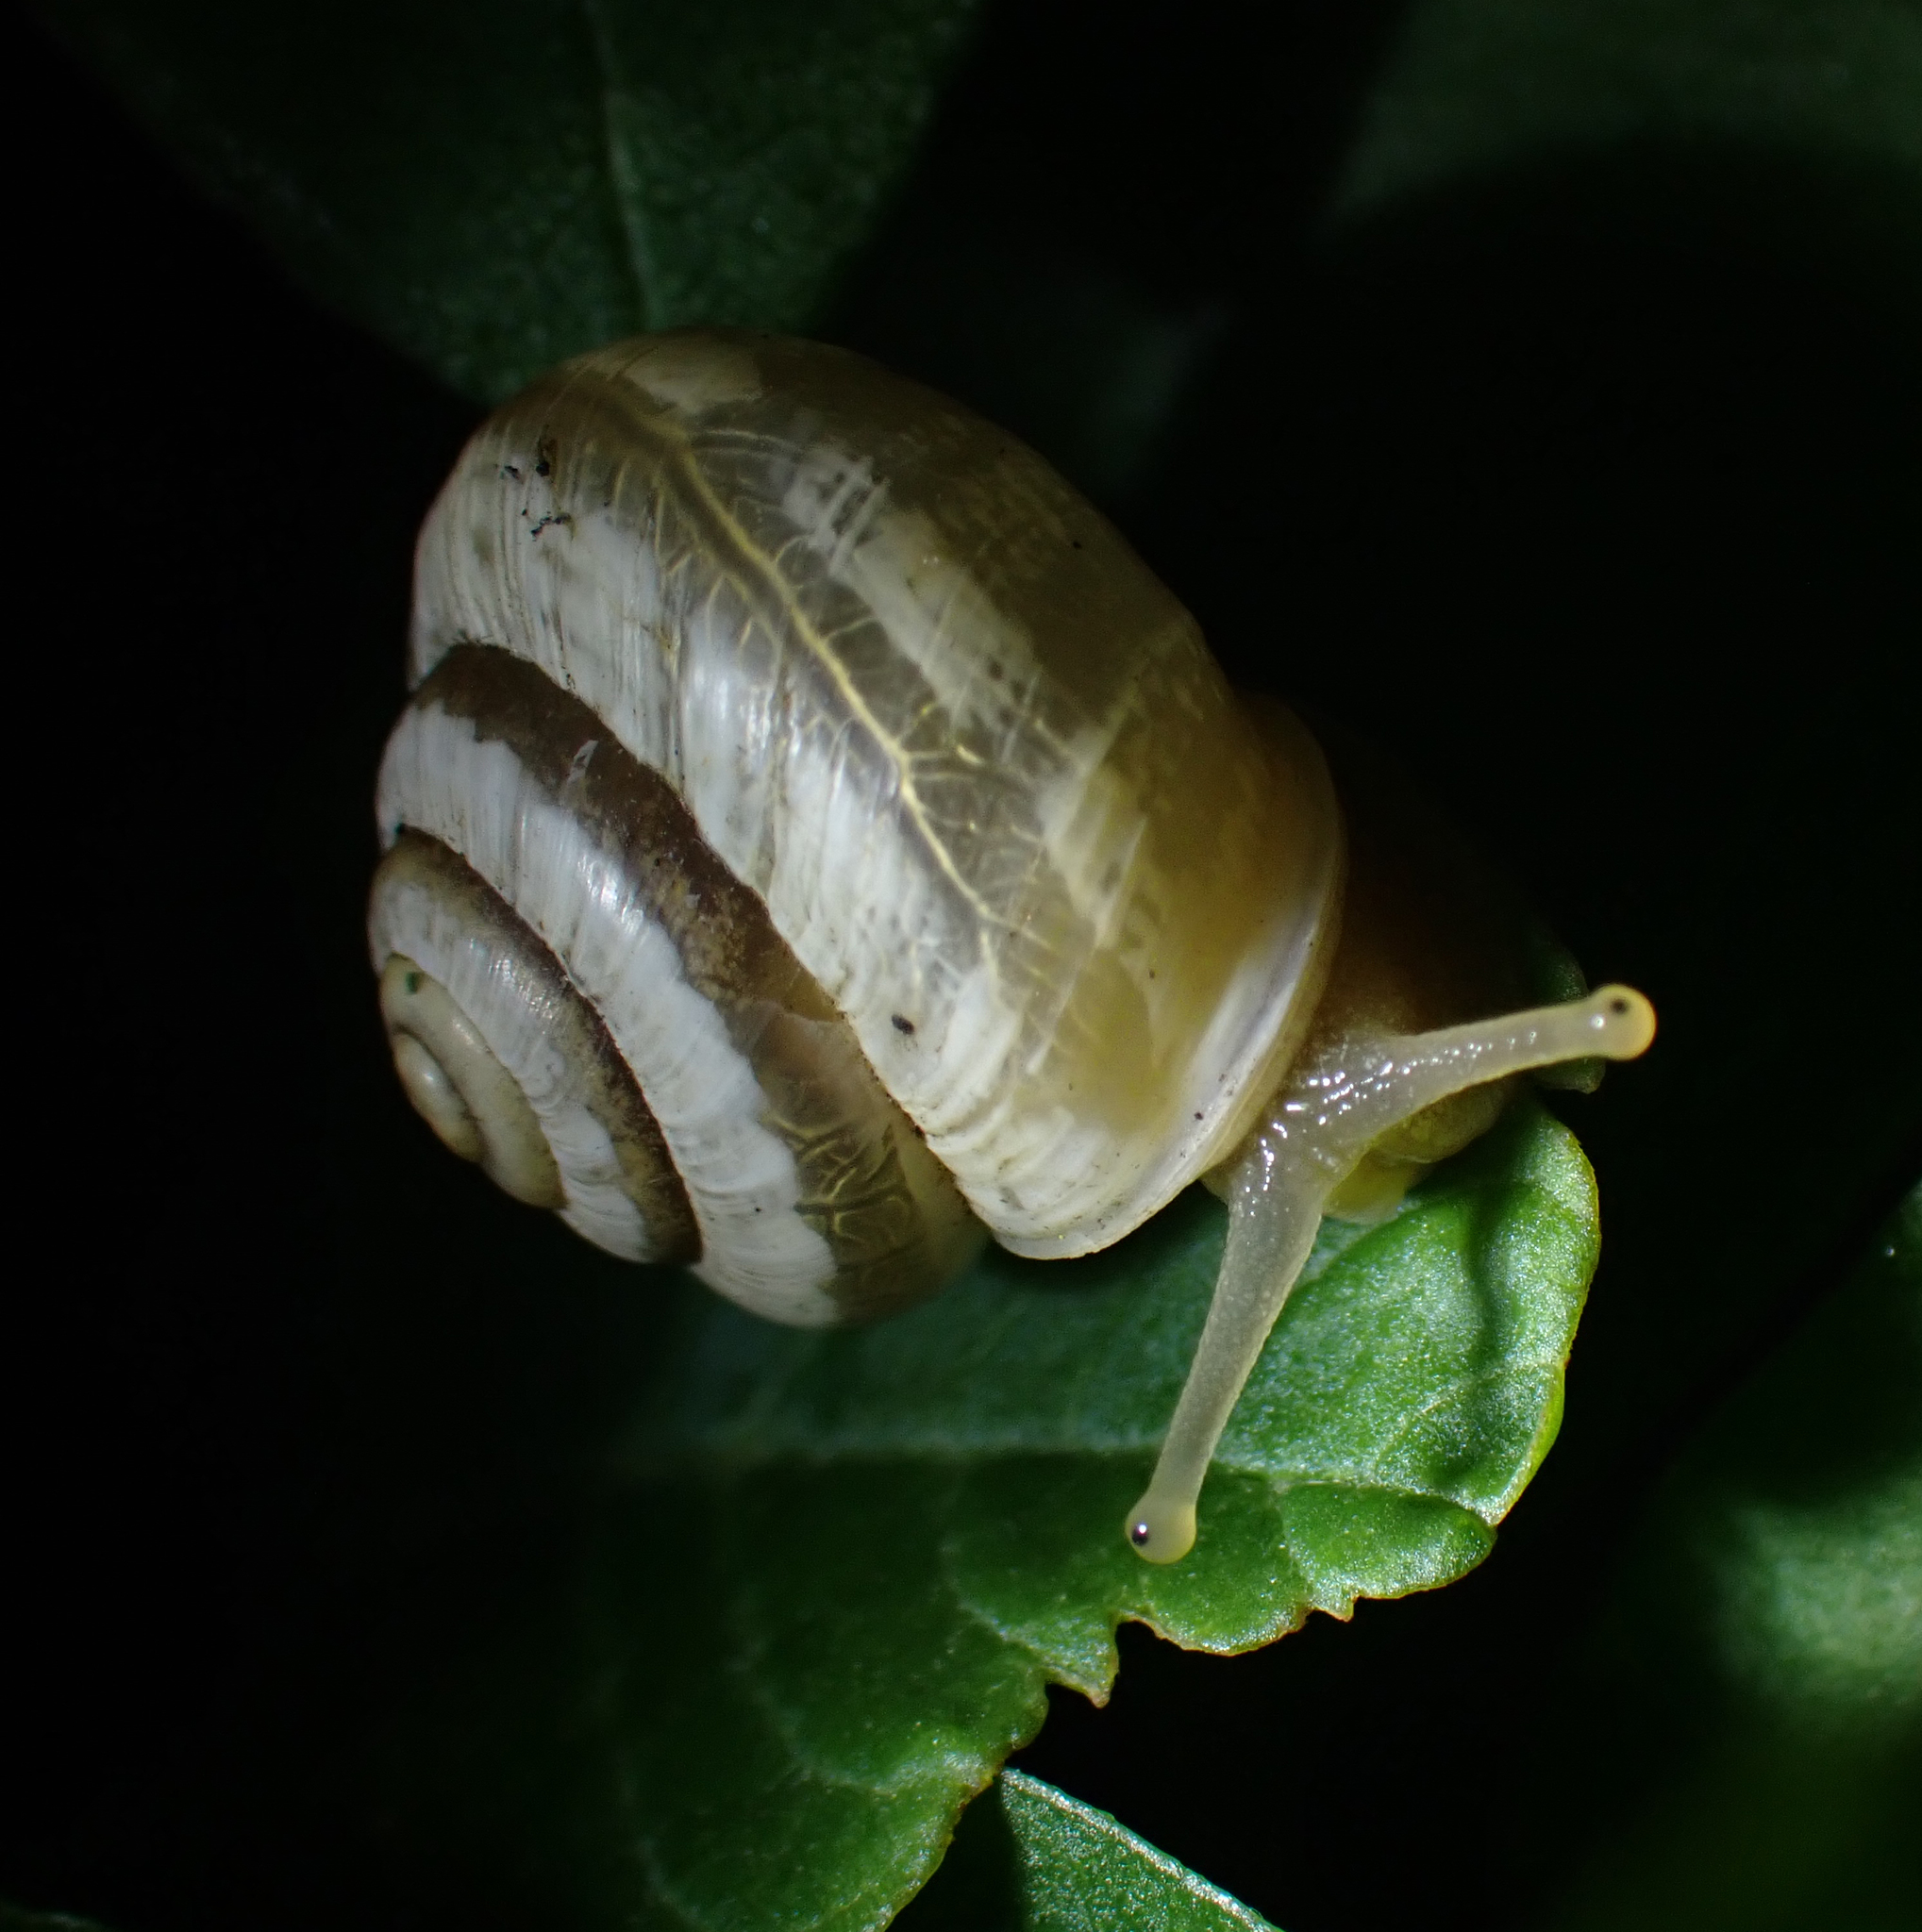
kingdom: Animalia
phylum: Mollusca
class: Gastropoda
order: Stylommatophora
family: Polygyridae
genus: Praticolella
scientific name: Praticolella mexicana
